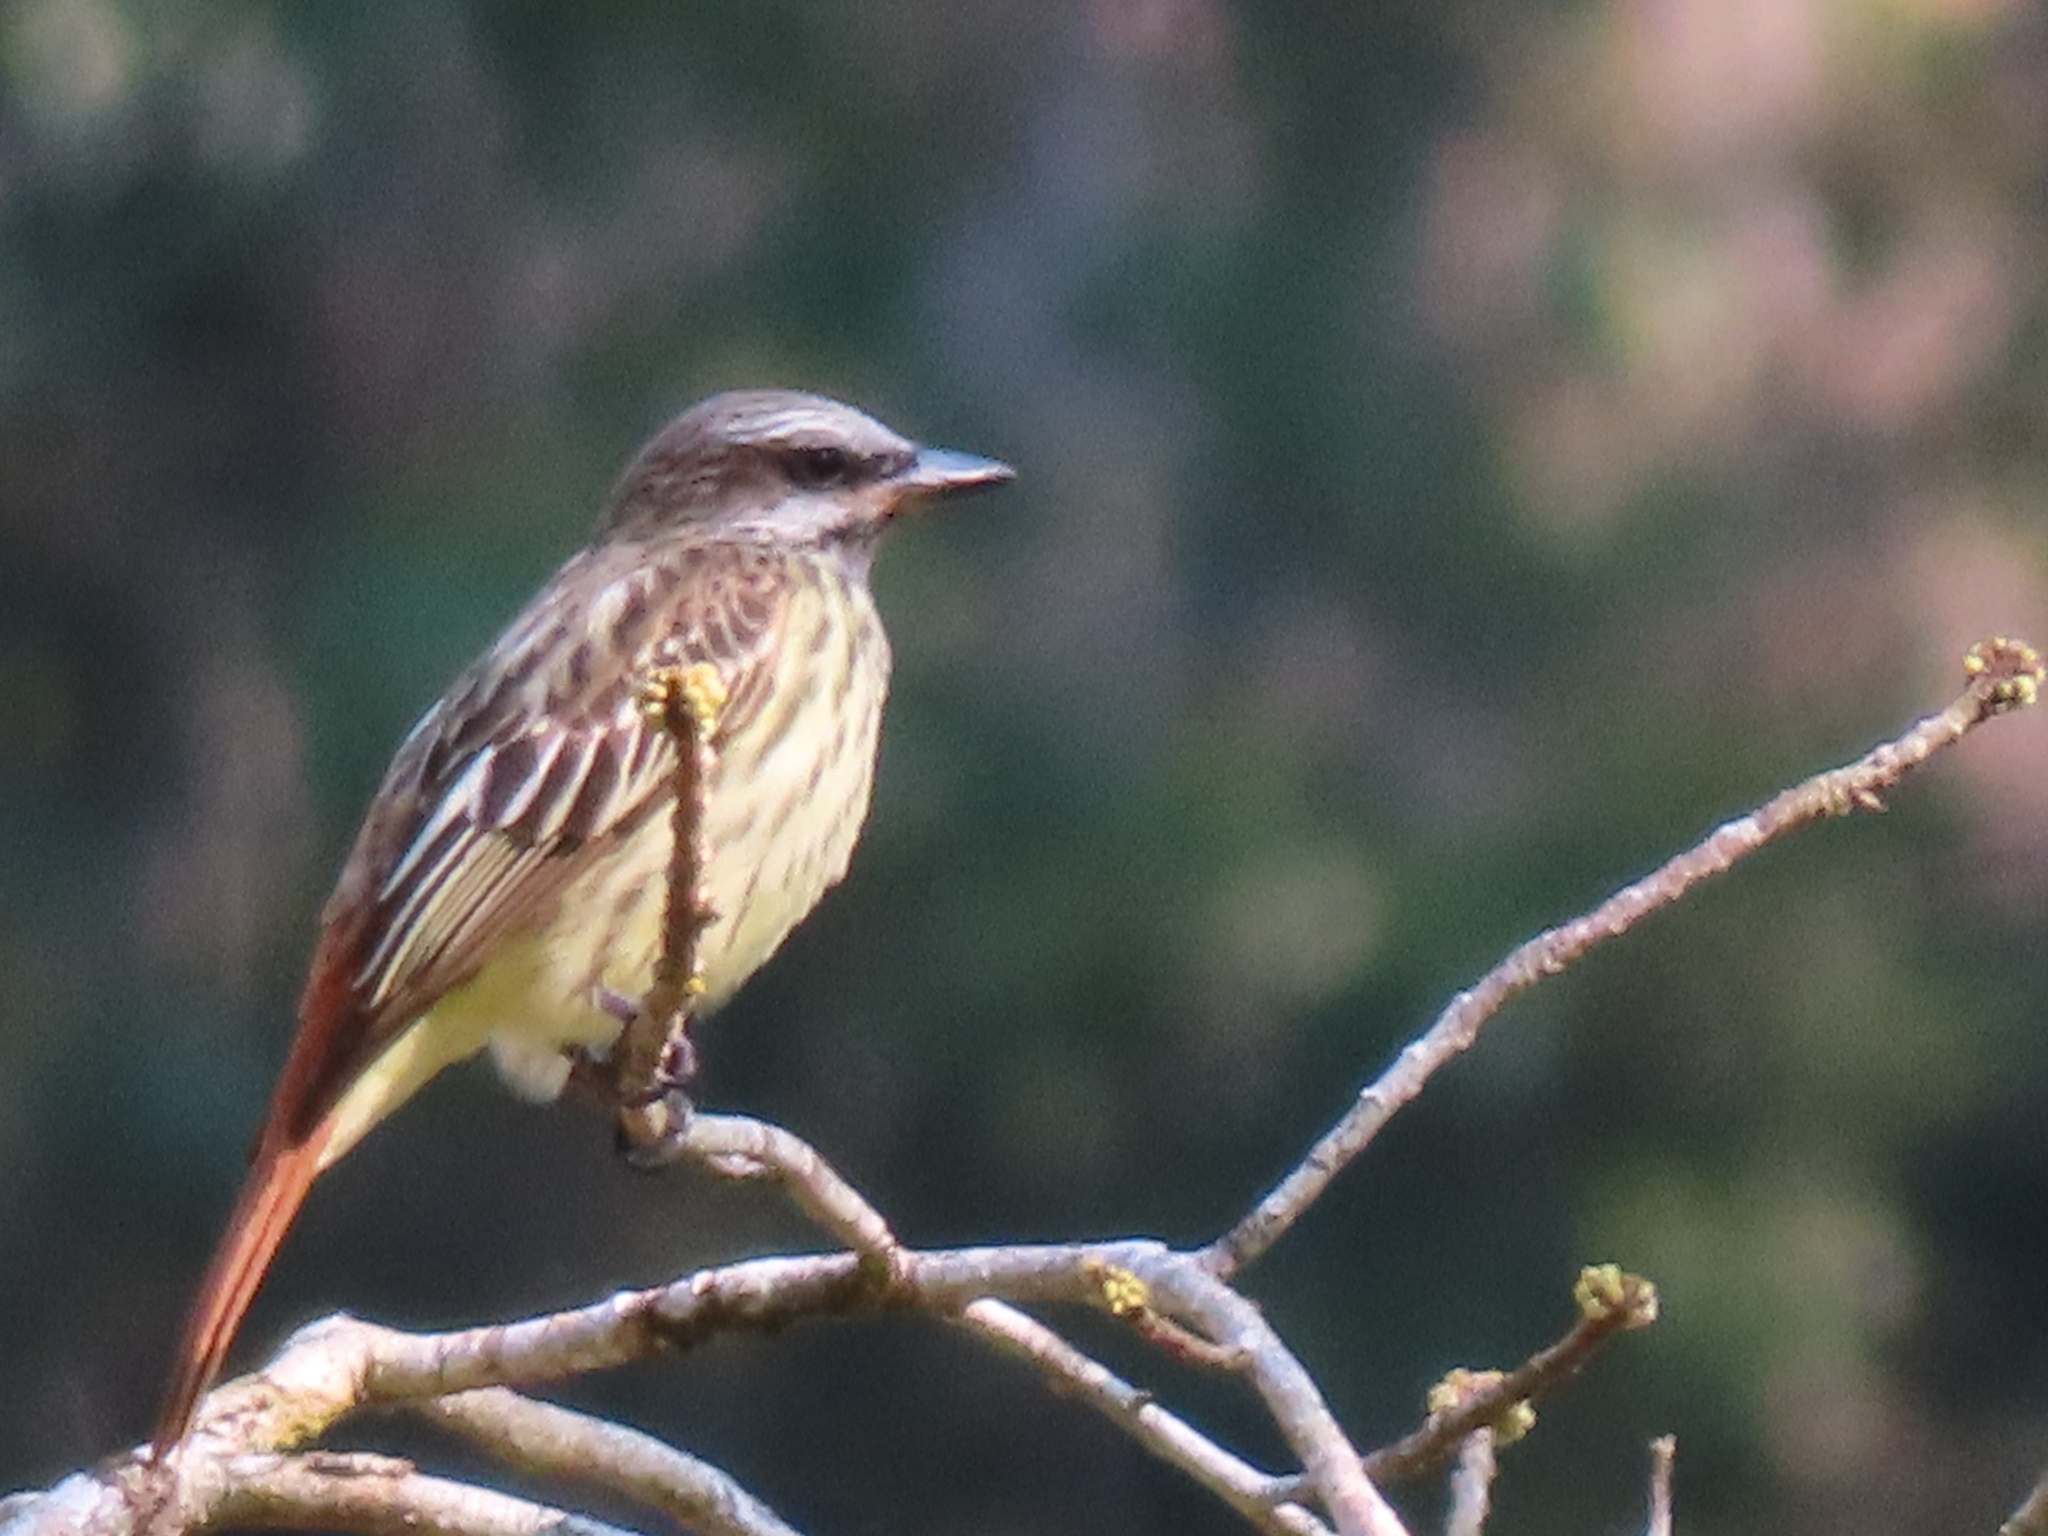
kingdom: Animalia
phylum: Chordata
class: Aves
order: Passeriformes
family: Tyrannidae
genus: Myiodynastes
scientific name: Myiodynastes luteiventris
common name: Sulphur-bellied flycatcher
